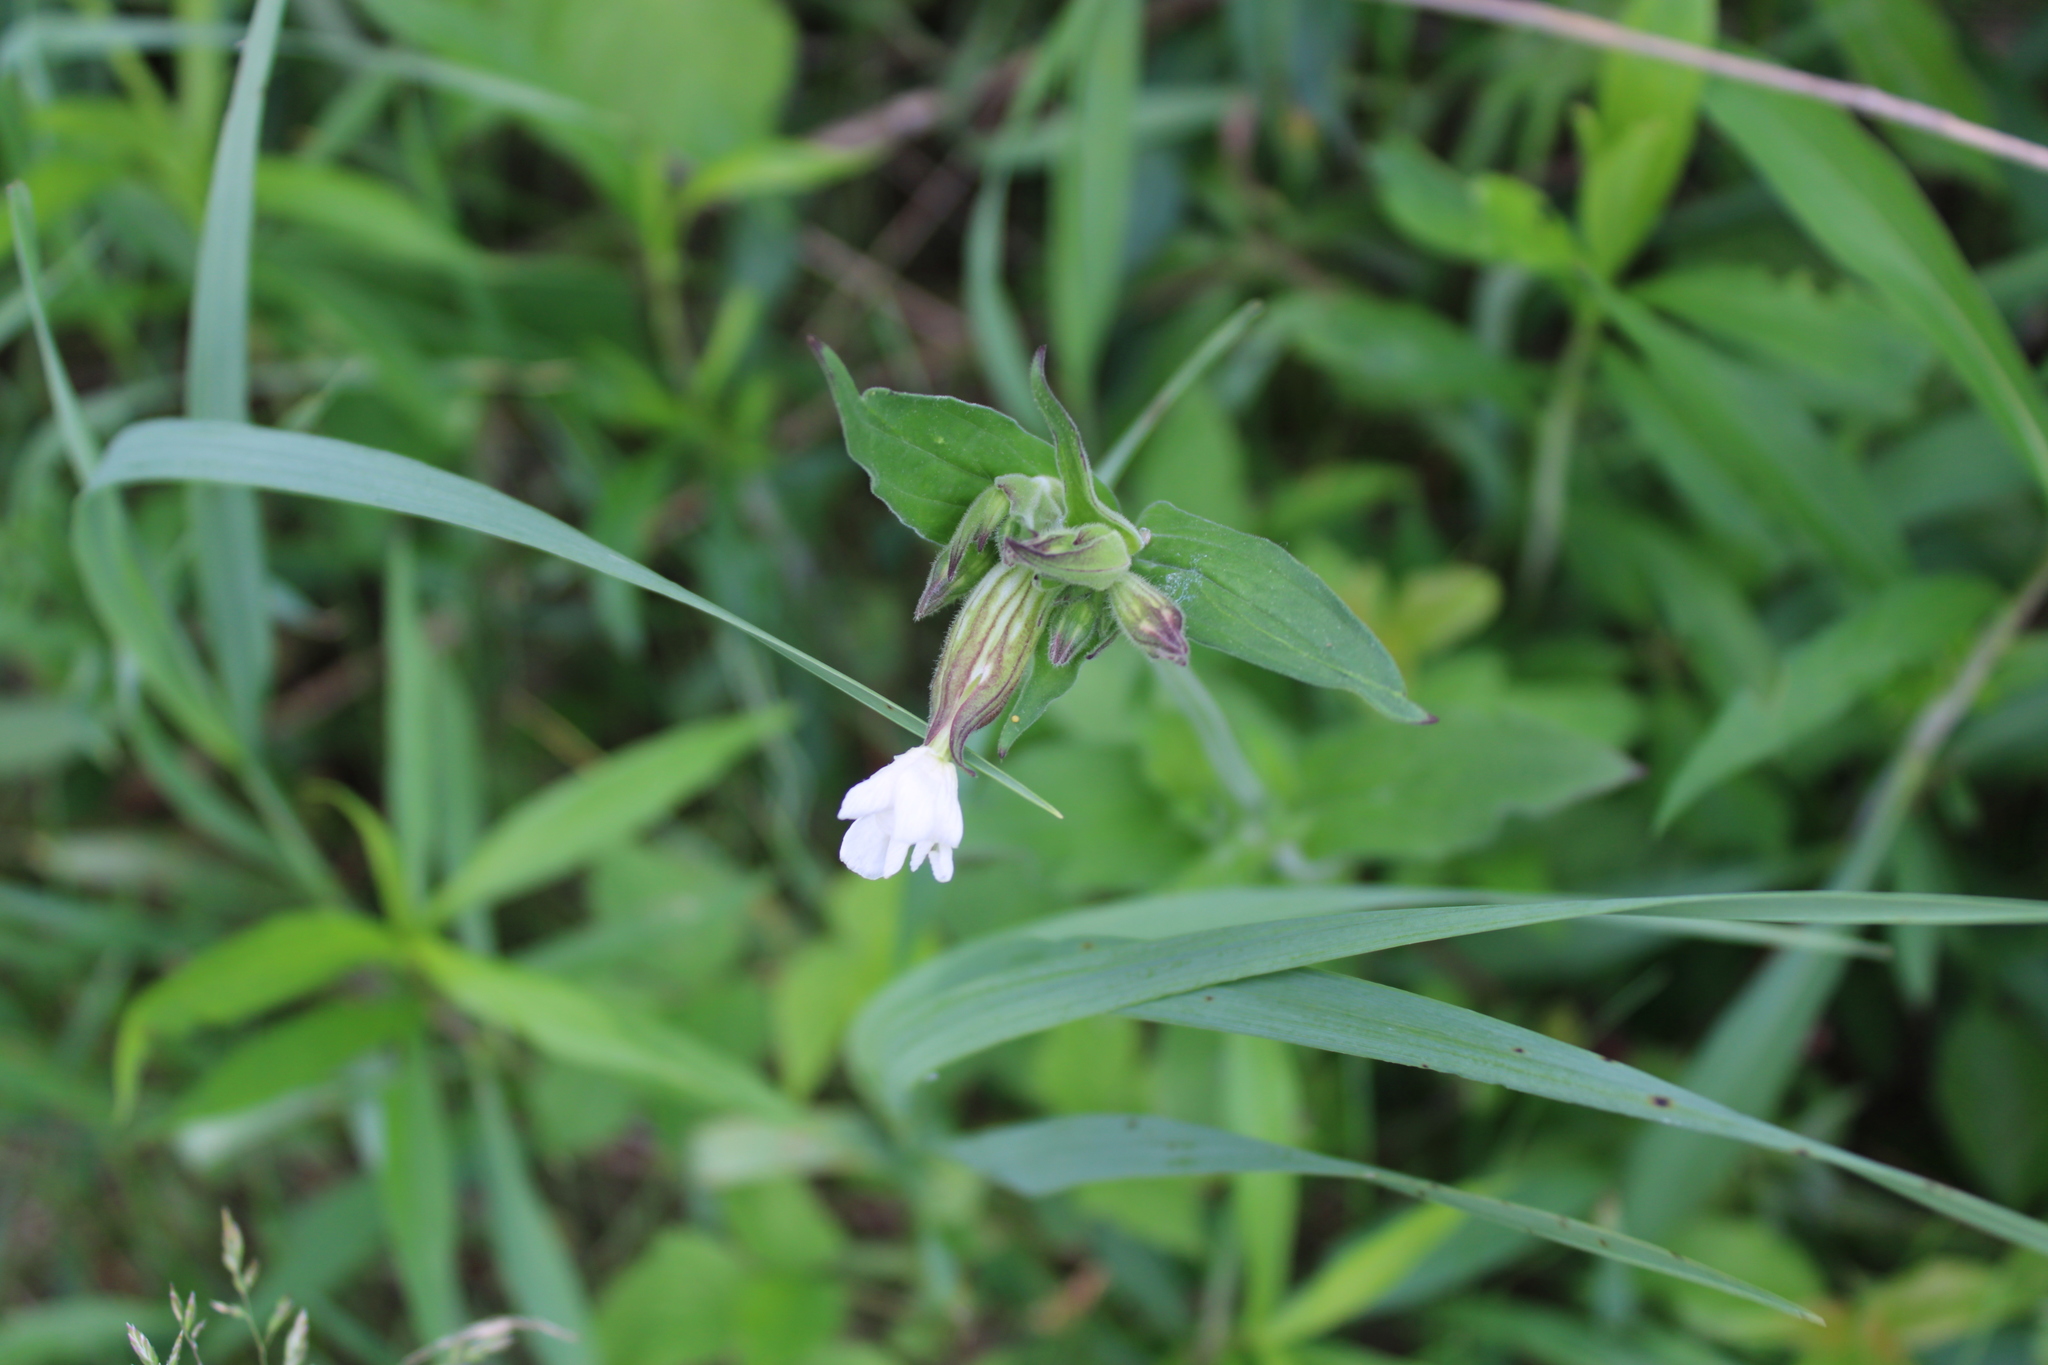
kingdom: Plantae
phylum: Tracheophyta
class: Magnoliopsida
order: Caryophyllales
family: Caryophyllaceae
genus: Silene
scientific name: Silene latifolia
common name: White campion
